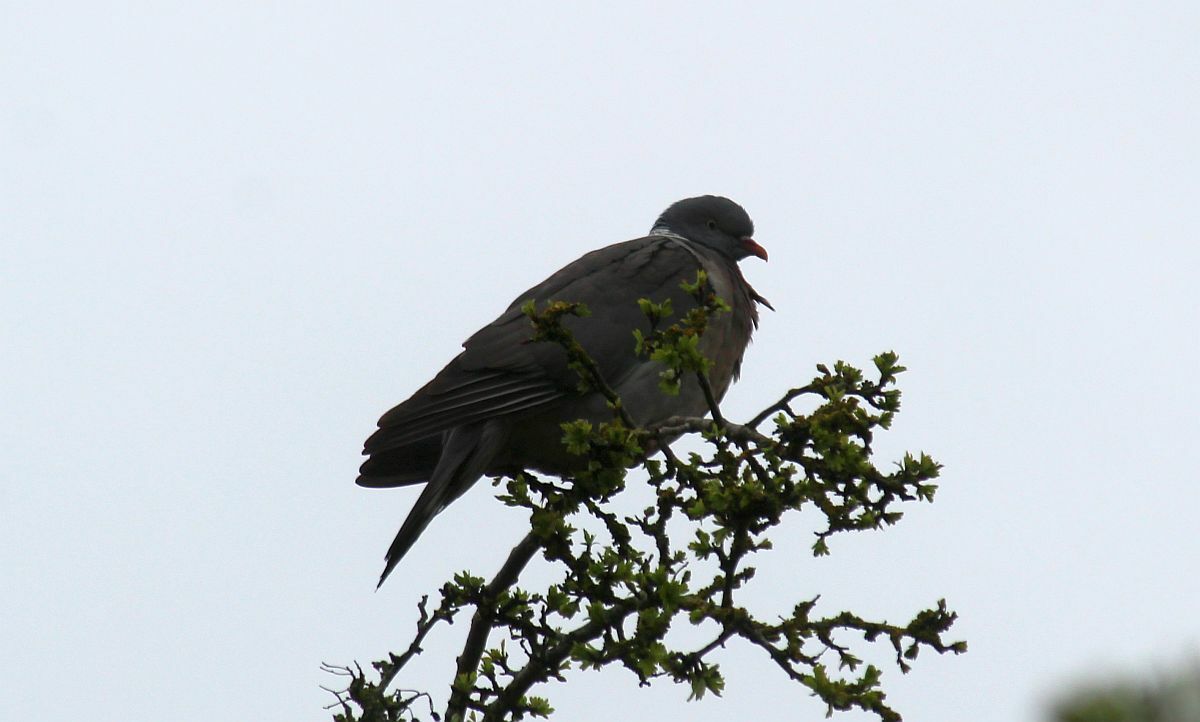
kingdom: Animalia
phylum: Chordata
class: Aves
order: Columbiformes
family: Columbidae
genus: Columba
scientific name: Columba palumbus
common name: Common wood pigeon
